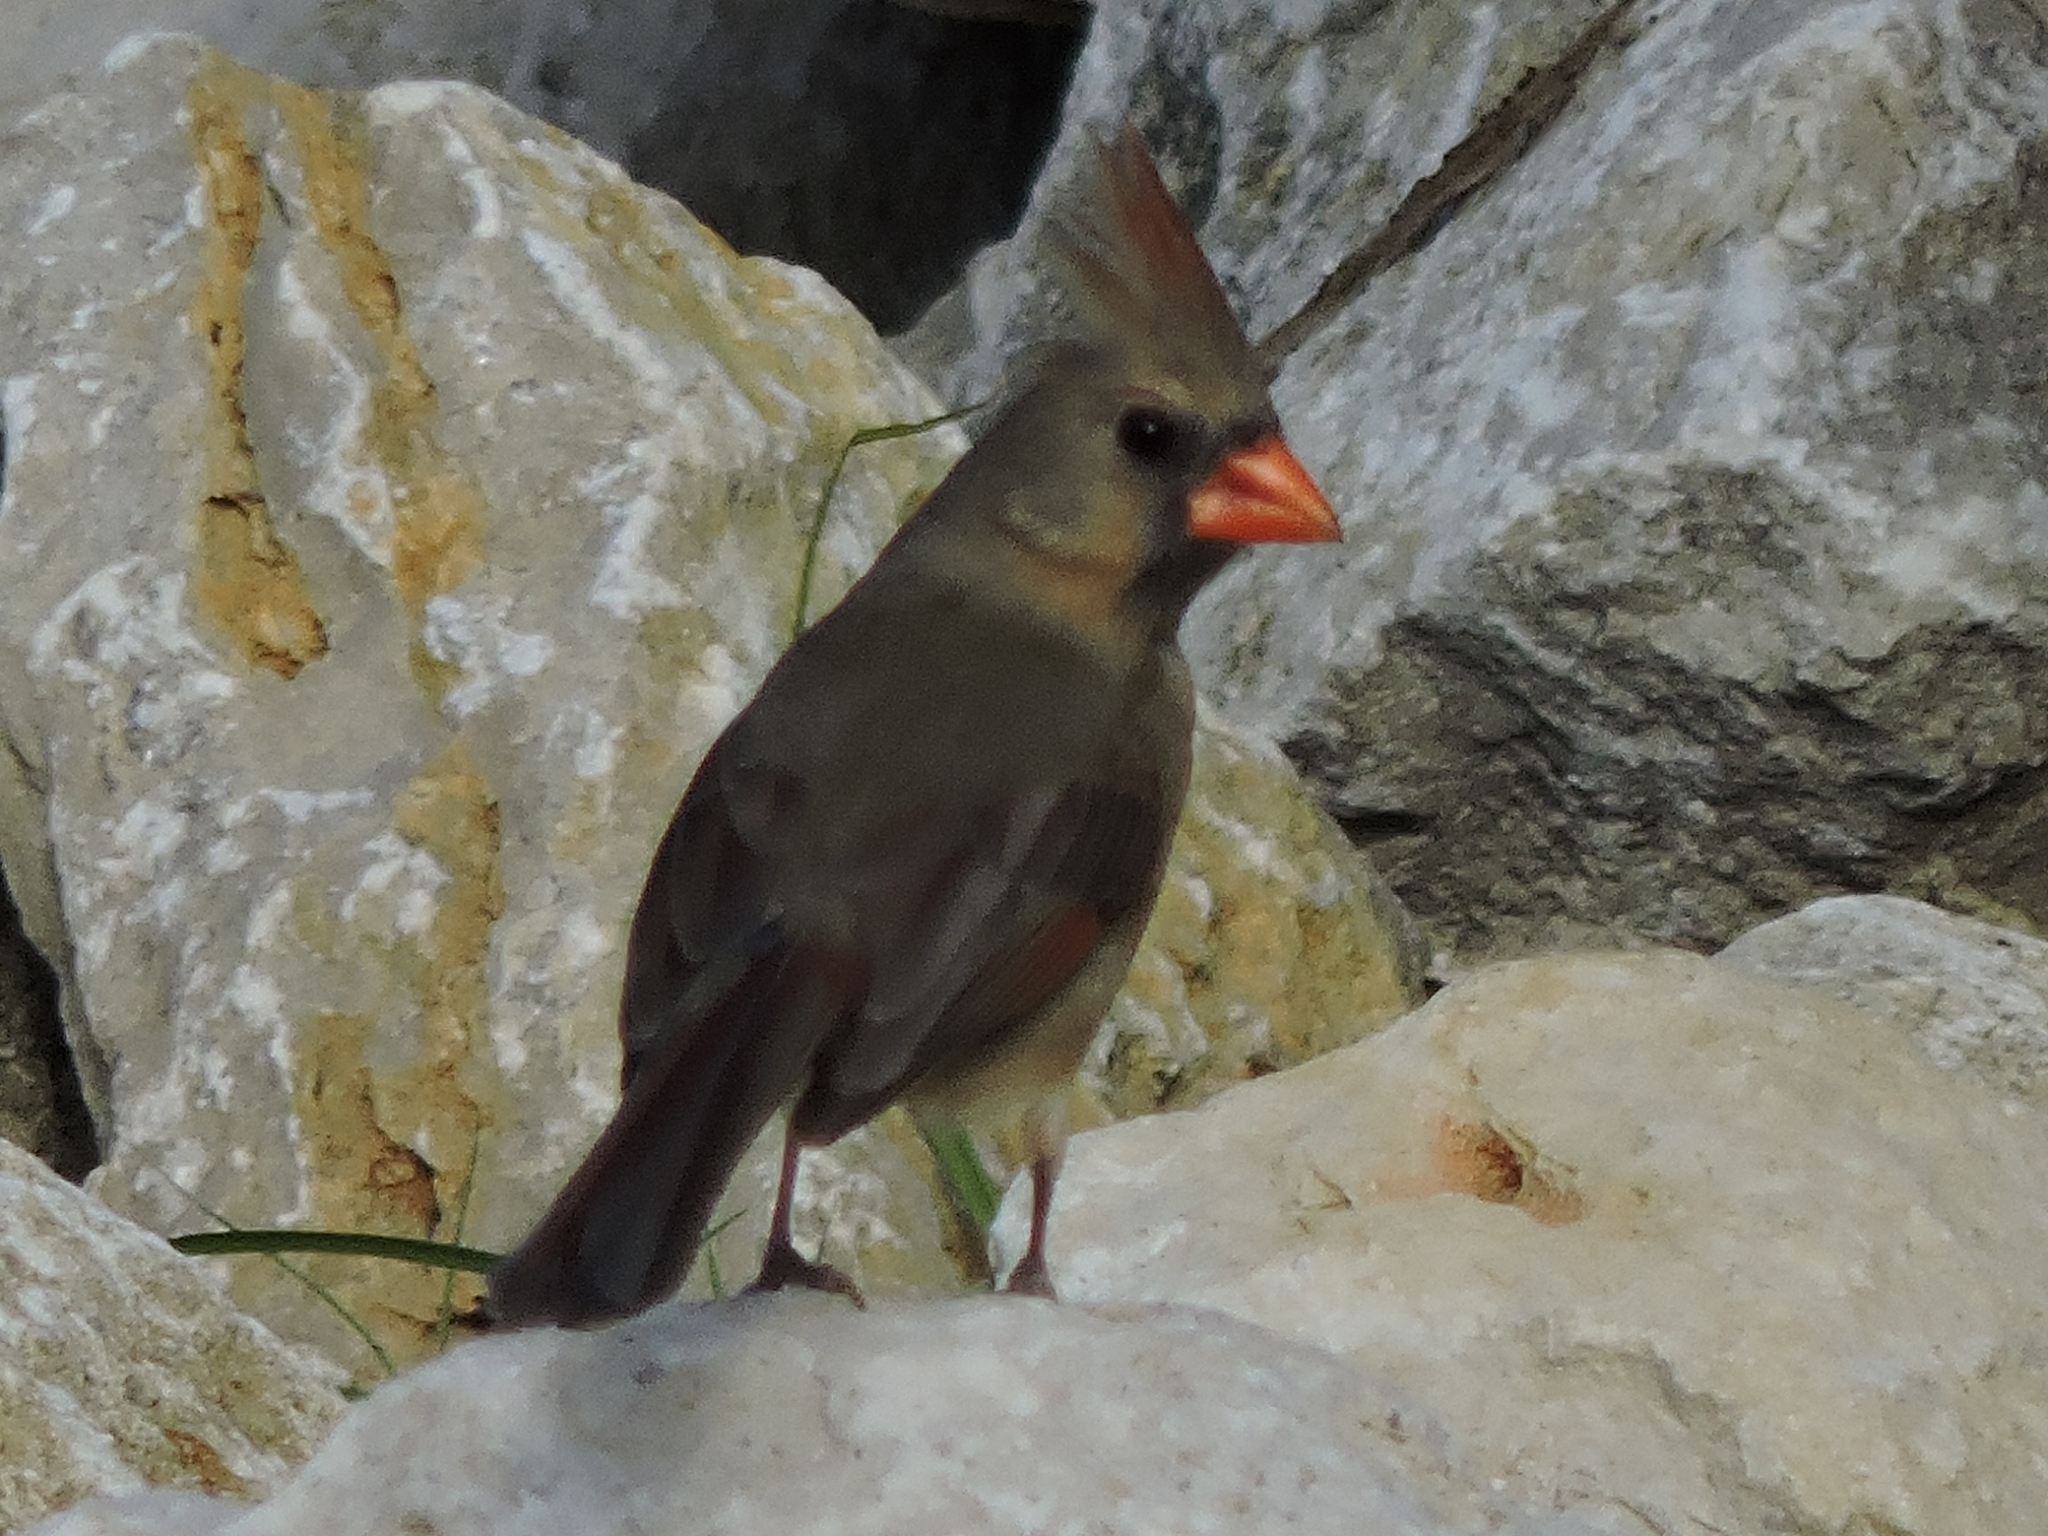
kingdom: Animalia
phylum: Chordata
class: Aves
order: Passeriformes
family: Cardinalidae
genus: Cardinalis
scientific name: Cardinalis cardinalis
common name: Northern cardinal
